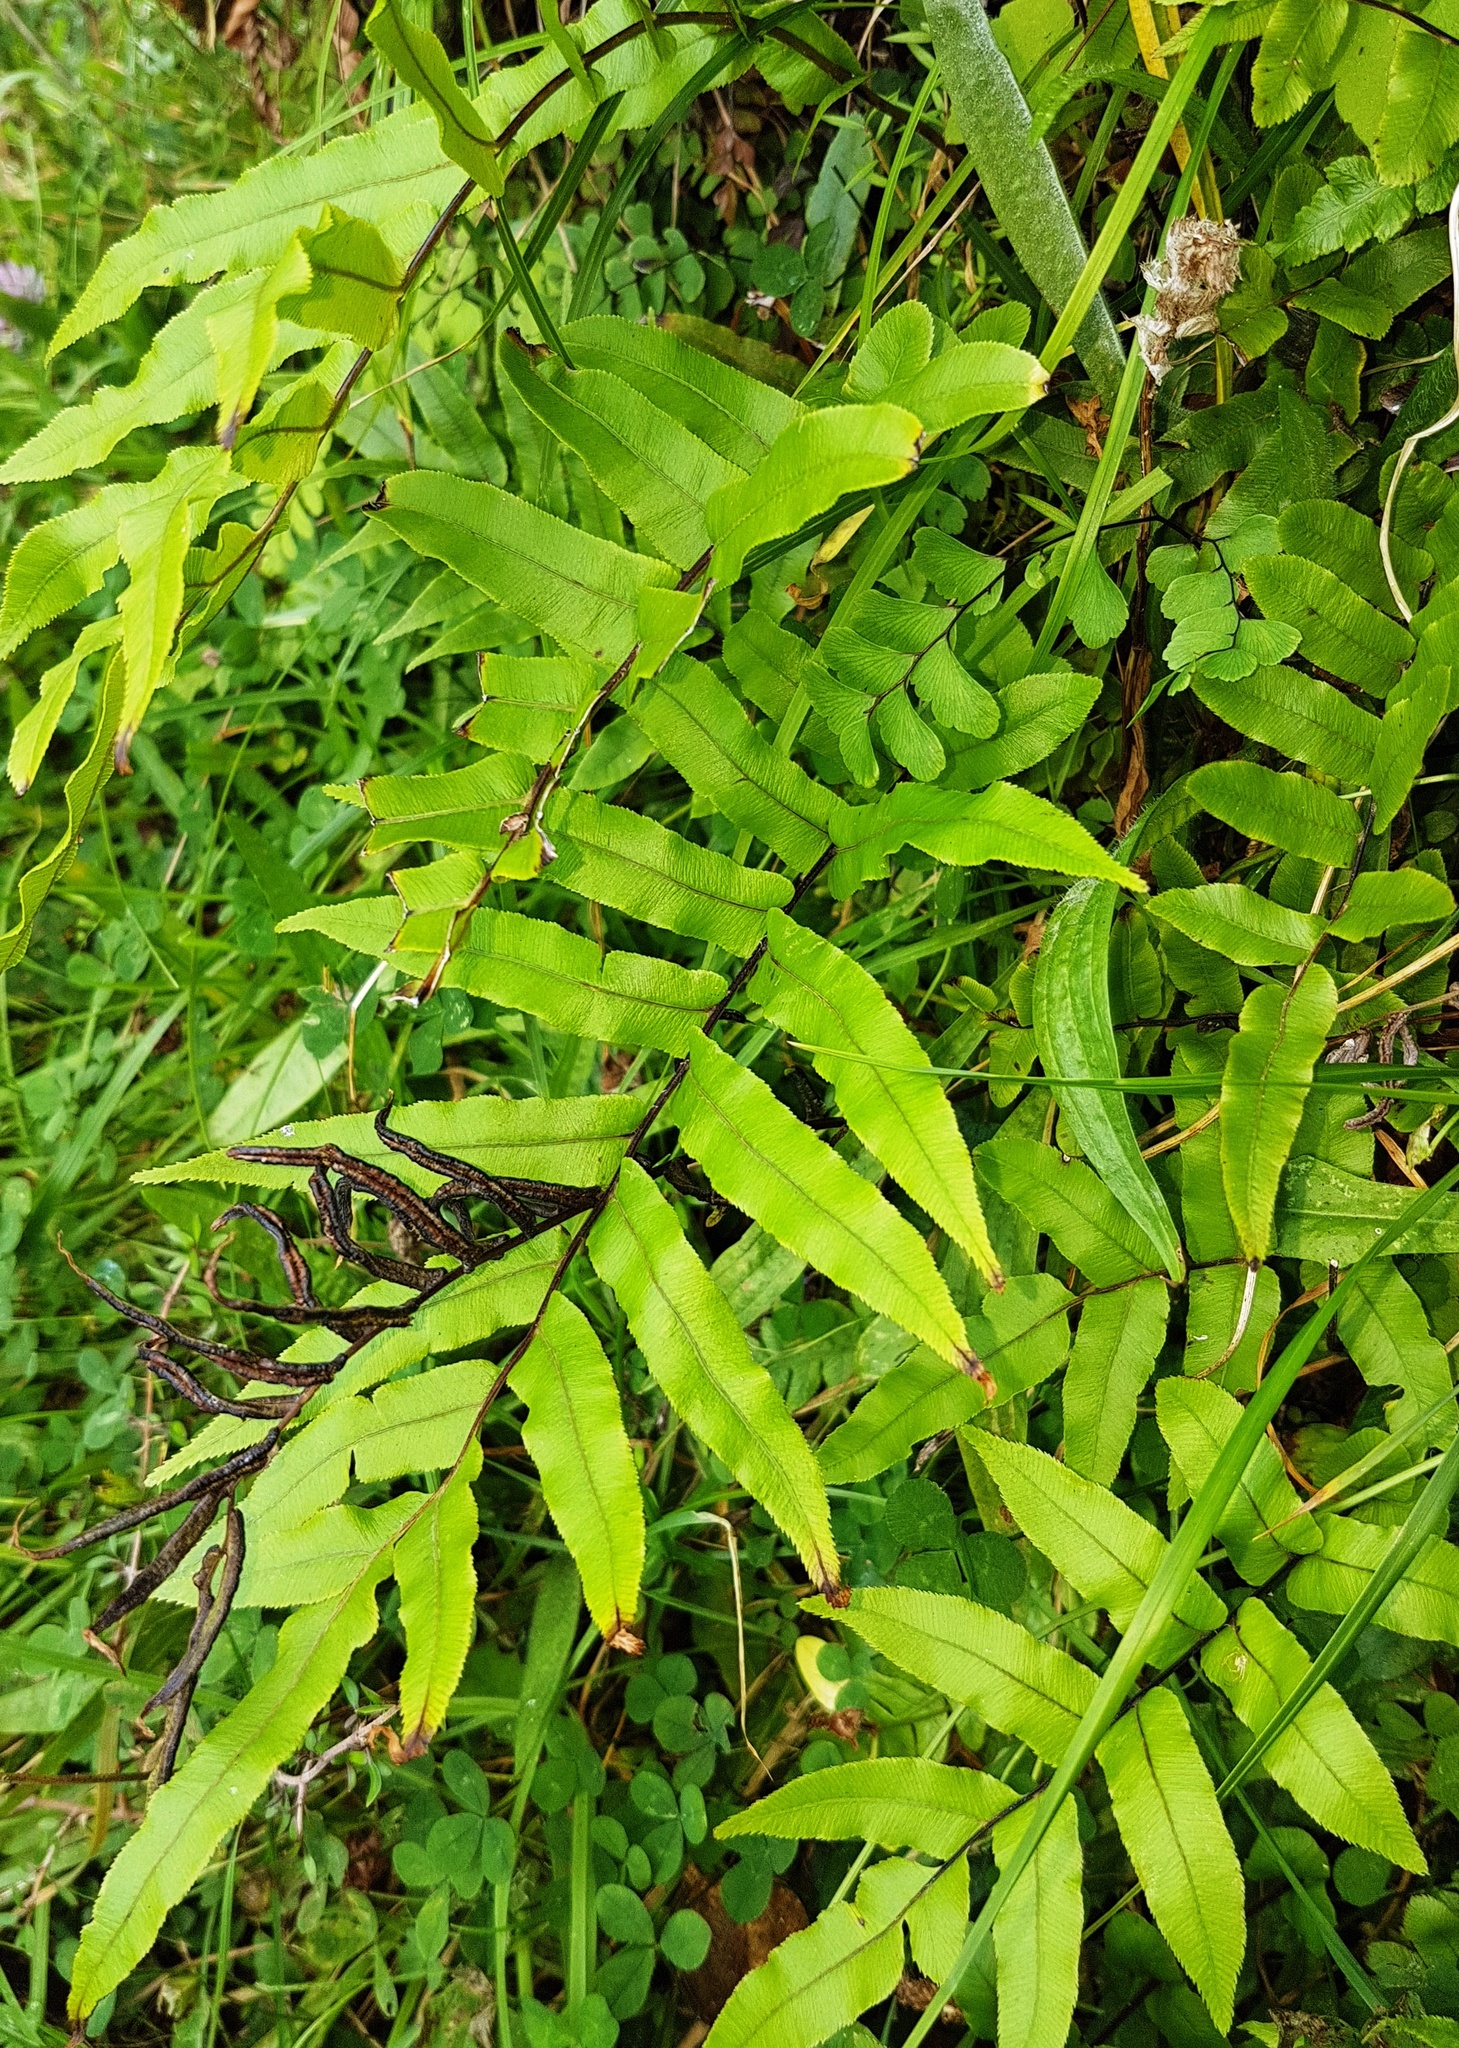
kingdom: Plantae
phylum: Tracheophyta
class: Polypodiopsida
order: Polypodiales
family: Blechnaceae
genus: Parablechnum
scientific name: Parablechnum minus
